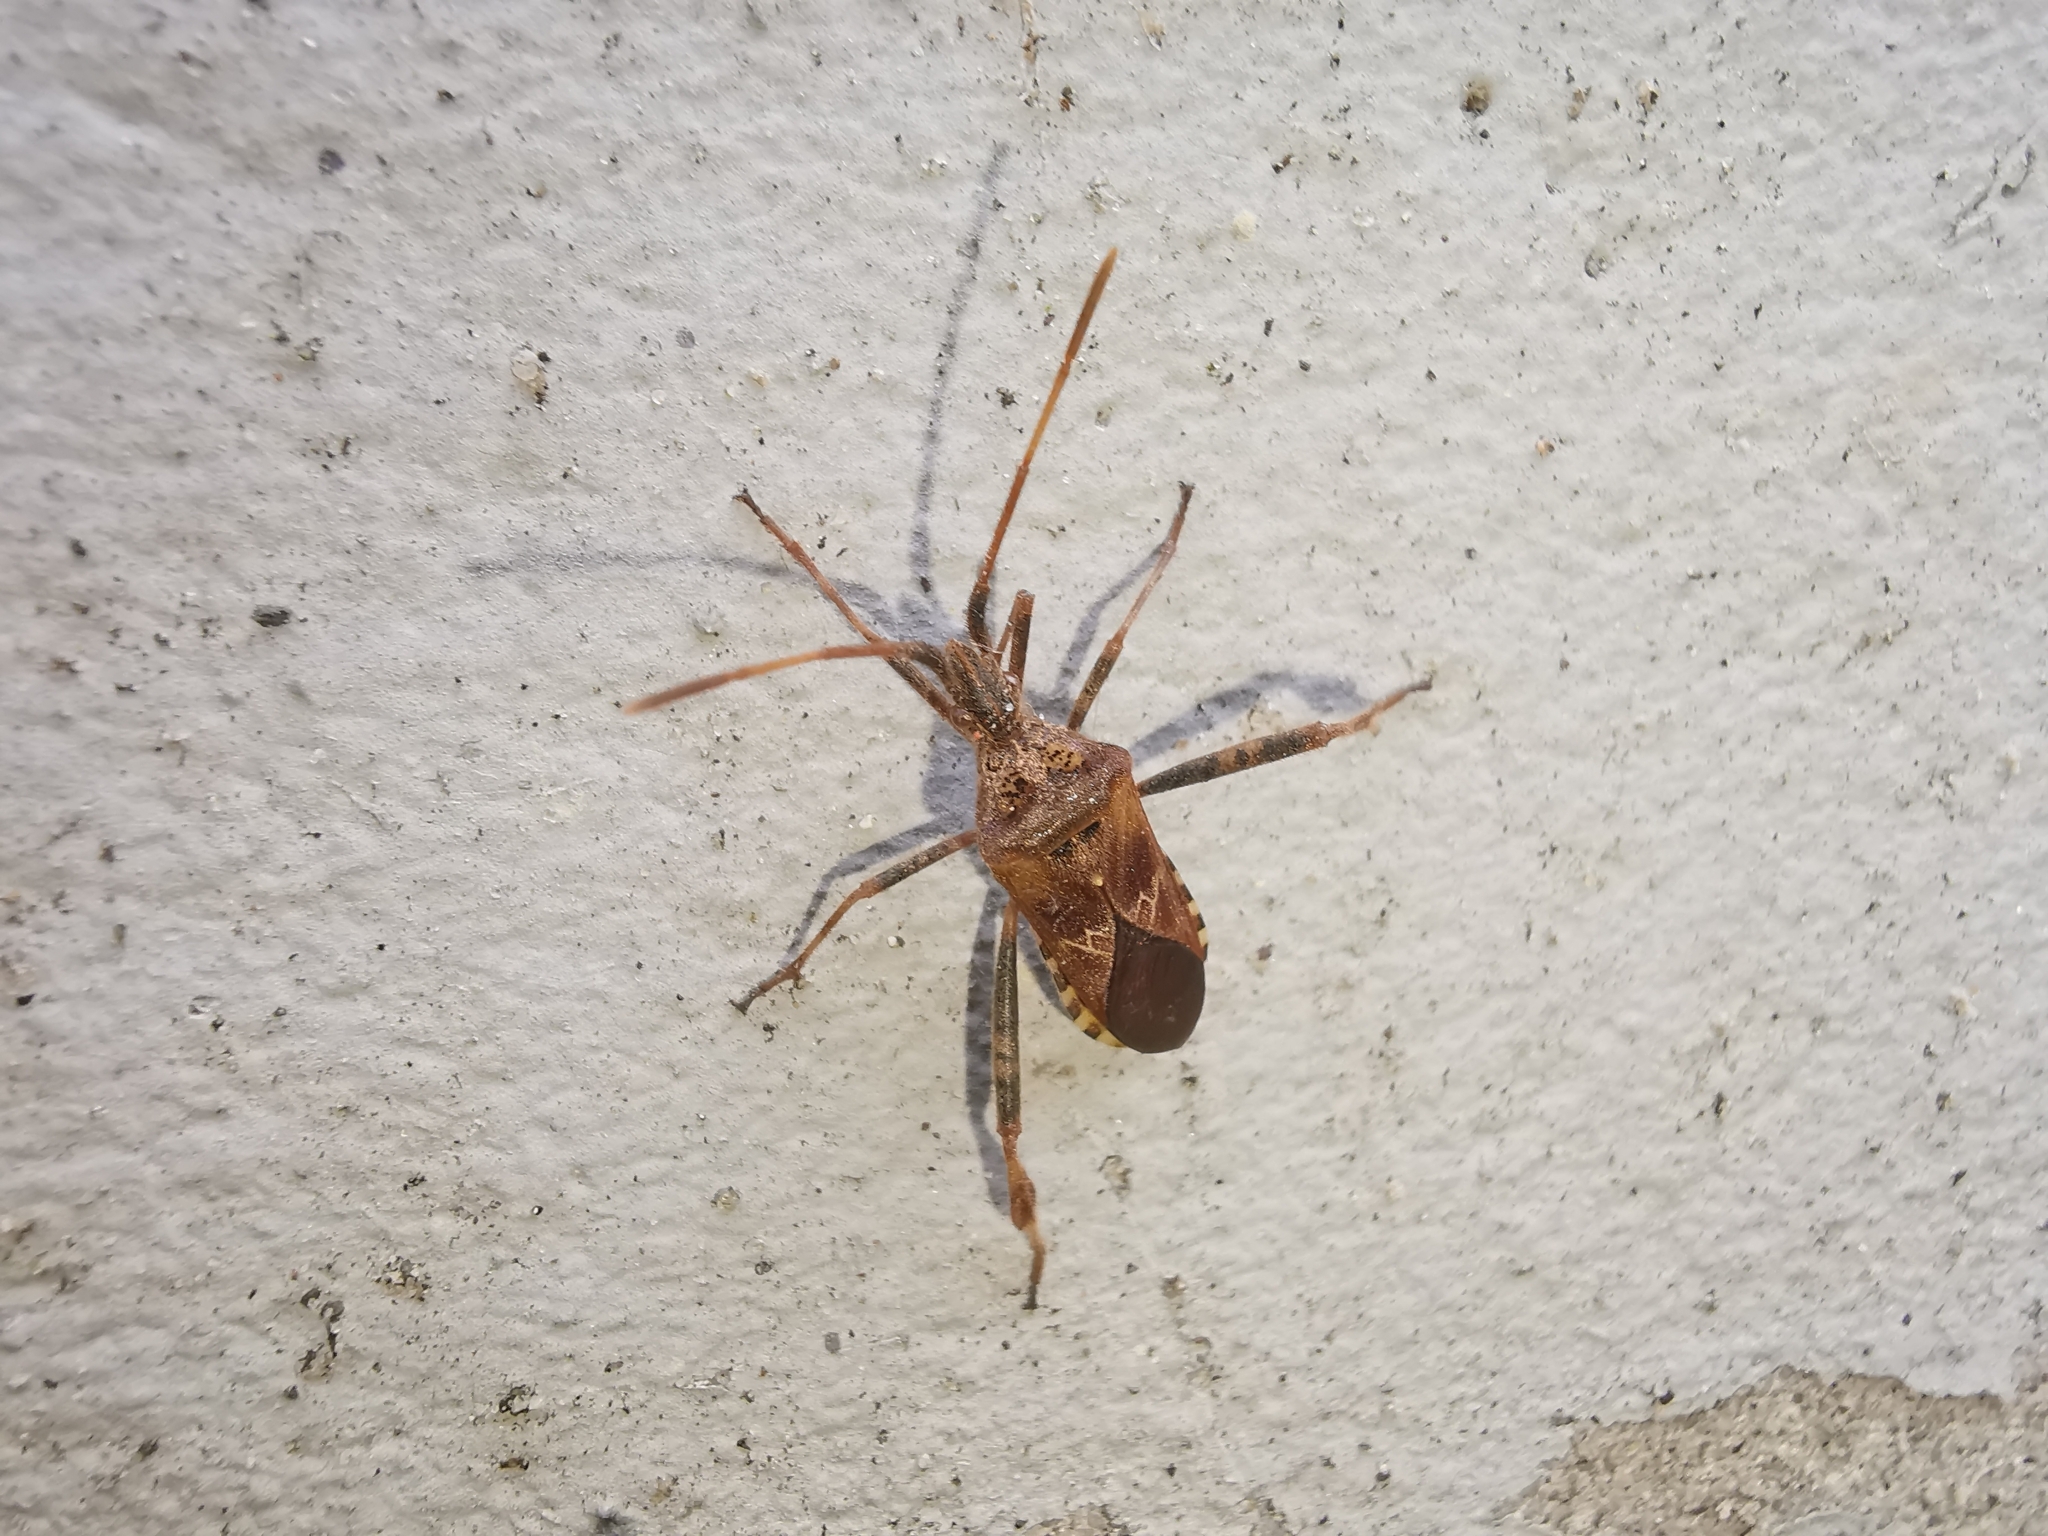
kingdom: Animalia
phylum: Arthropoda
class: Insecta
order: Hemiptera
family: Coreidae
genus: Leptoglossus
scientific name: Leptoglossus occidentalis
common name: Western conifer-seed bug
